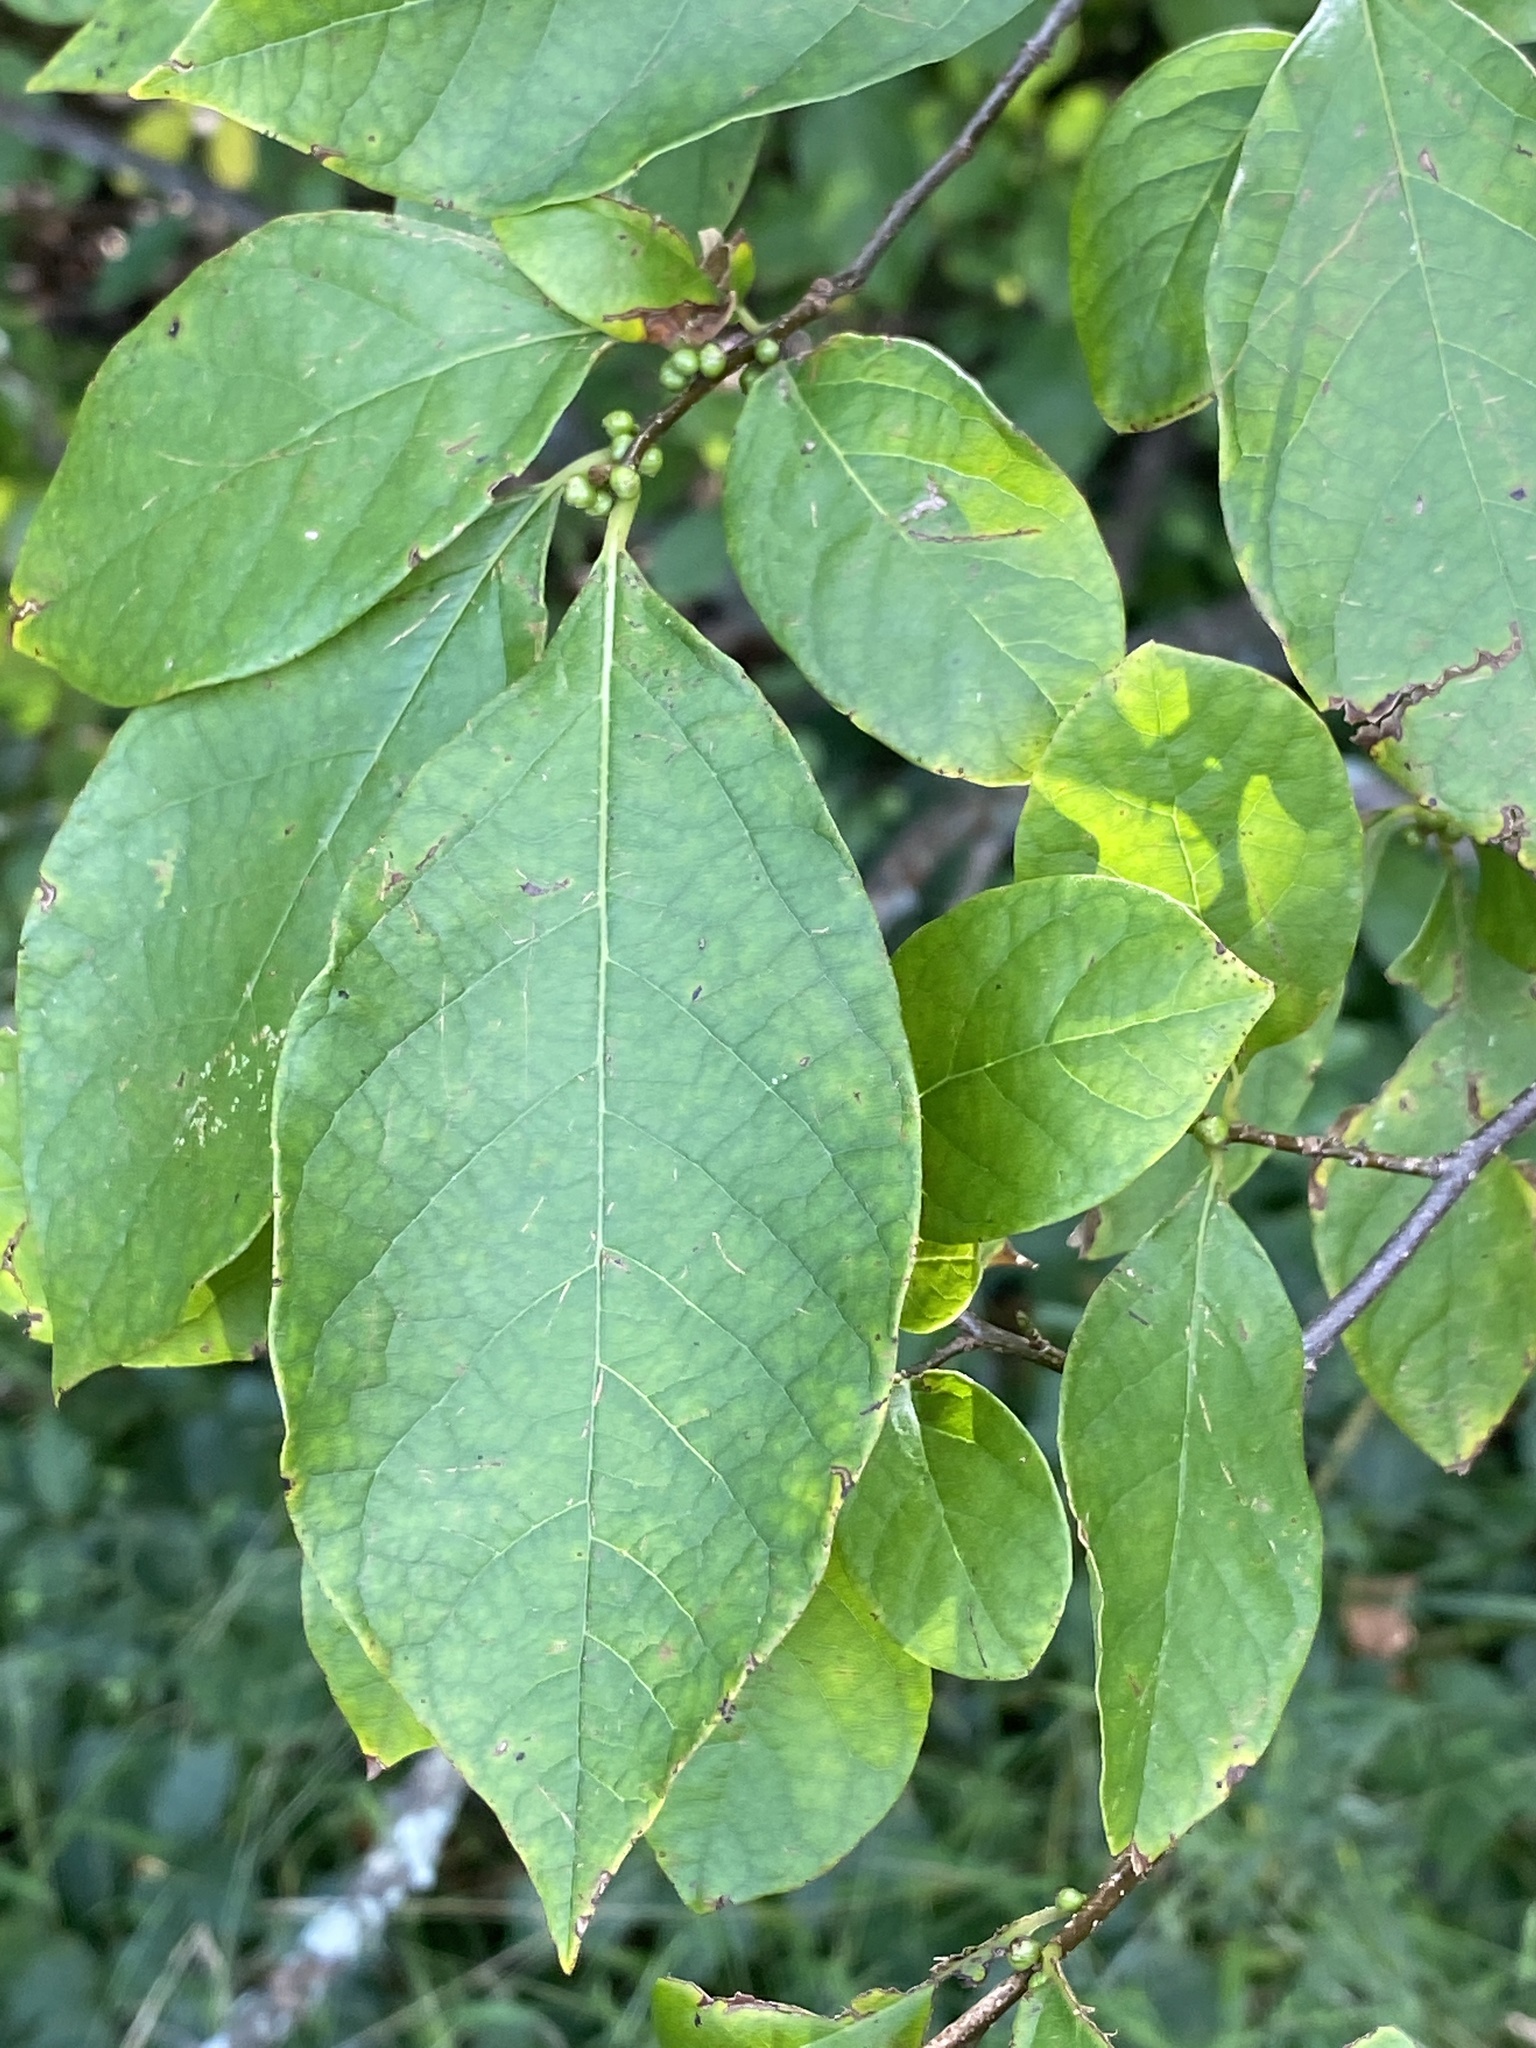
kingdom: Plantae
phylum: Tracheophyta
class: Magnoliopsida
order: Laurales
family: Lauraceae
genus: Lindera
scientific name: Lindera benzoin
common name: Spicebush
